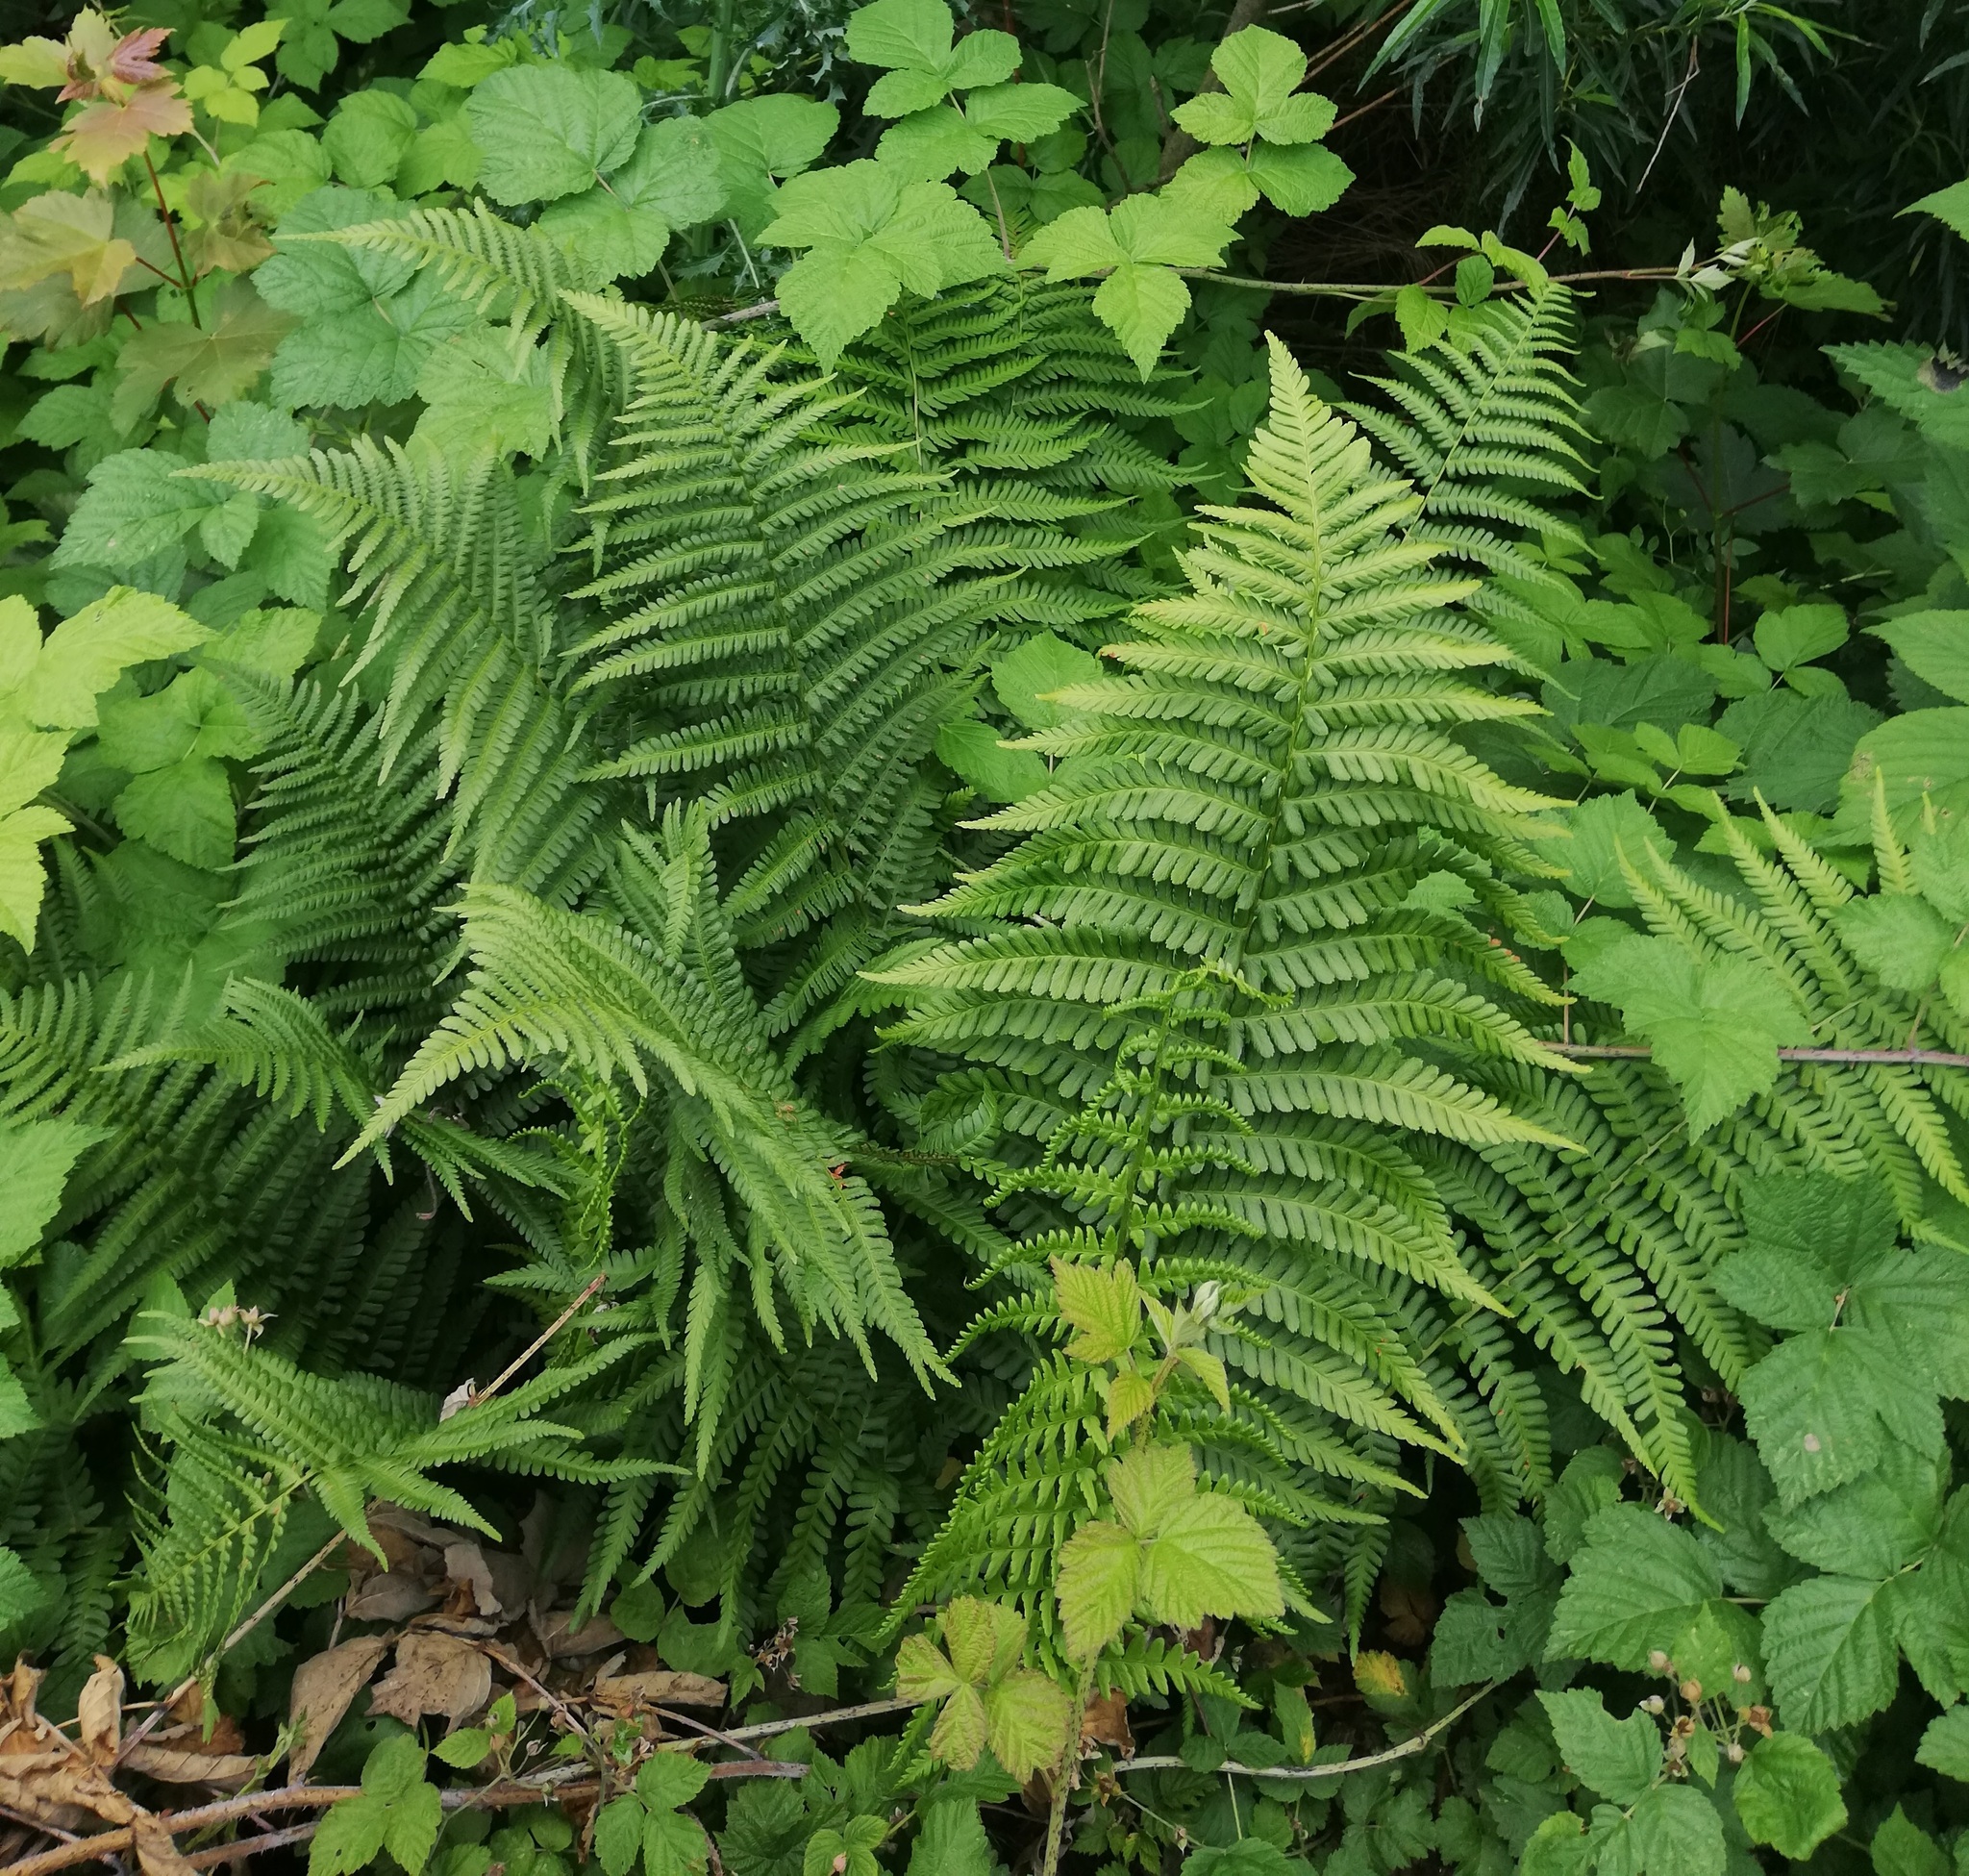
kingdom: Plantae
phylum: Tracheophyta
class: Polypodiopsida
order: Polypodiales
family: Dryopteridaceae
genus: Dryopteris
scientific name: Dryopteris filix-mas
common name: Male fern
